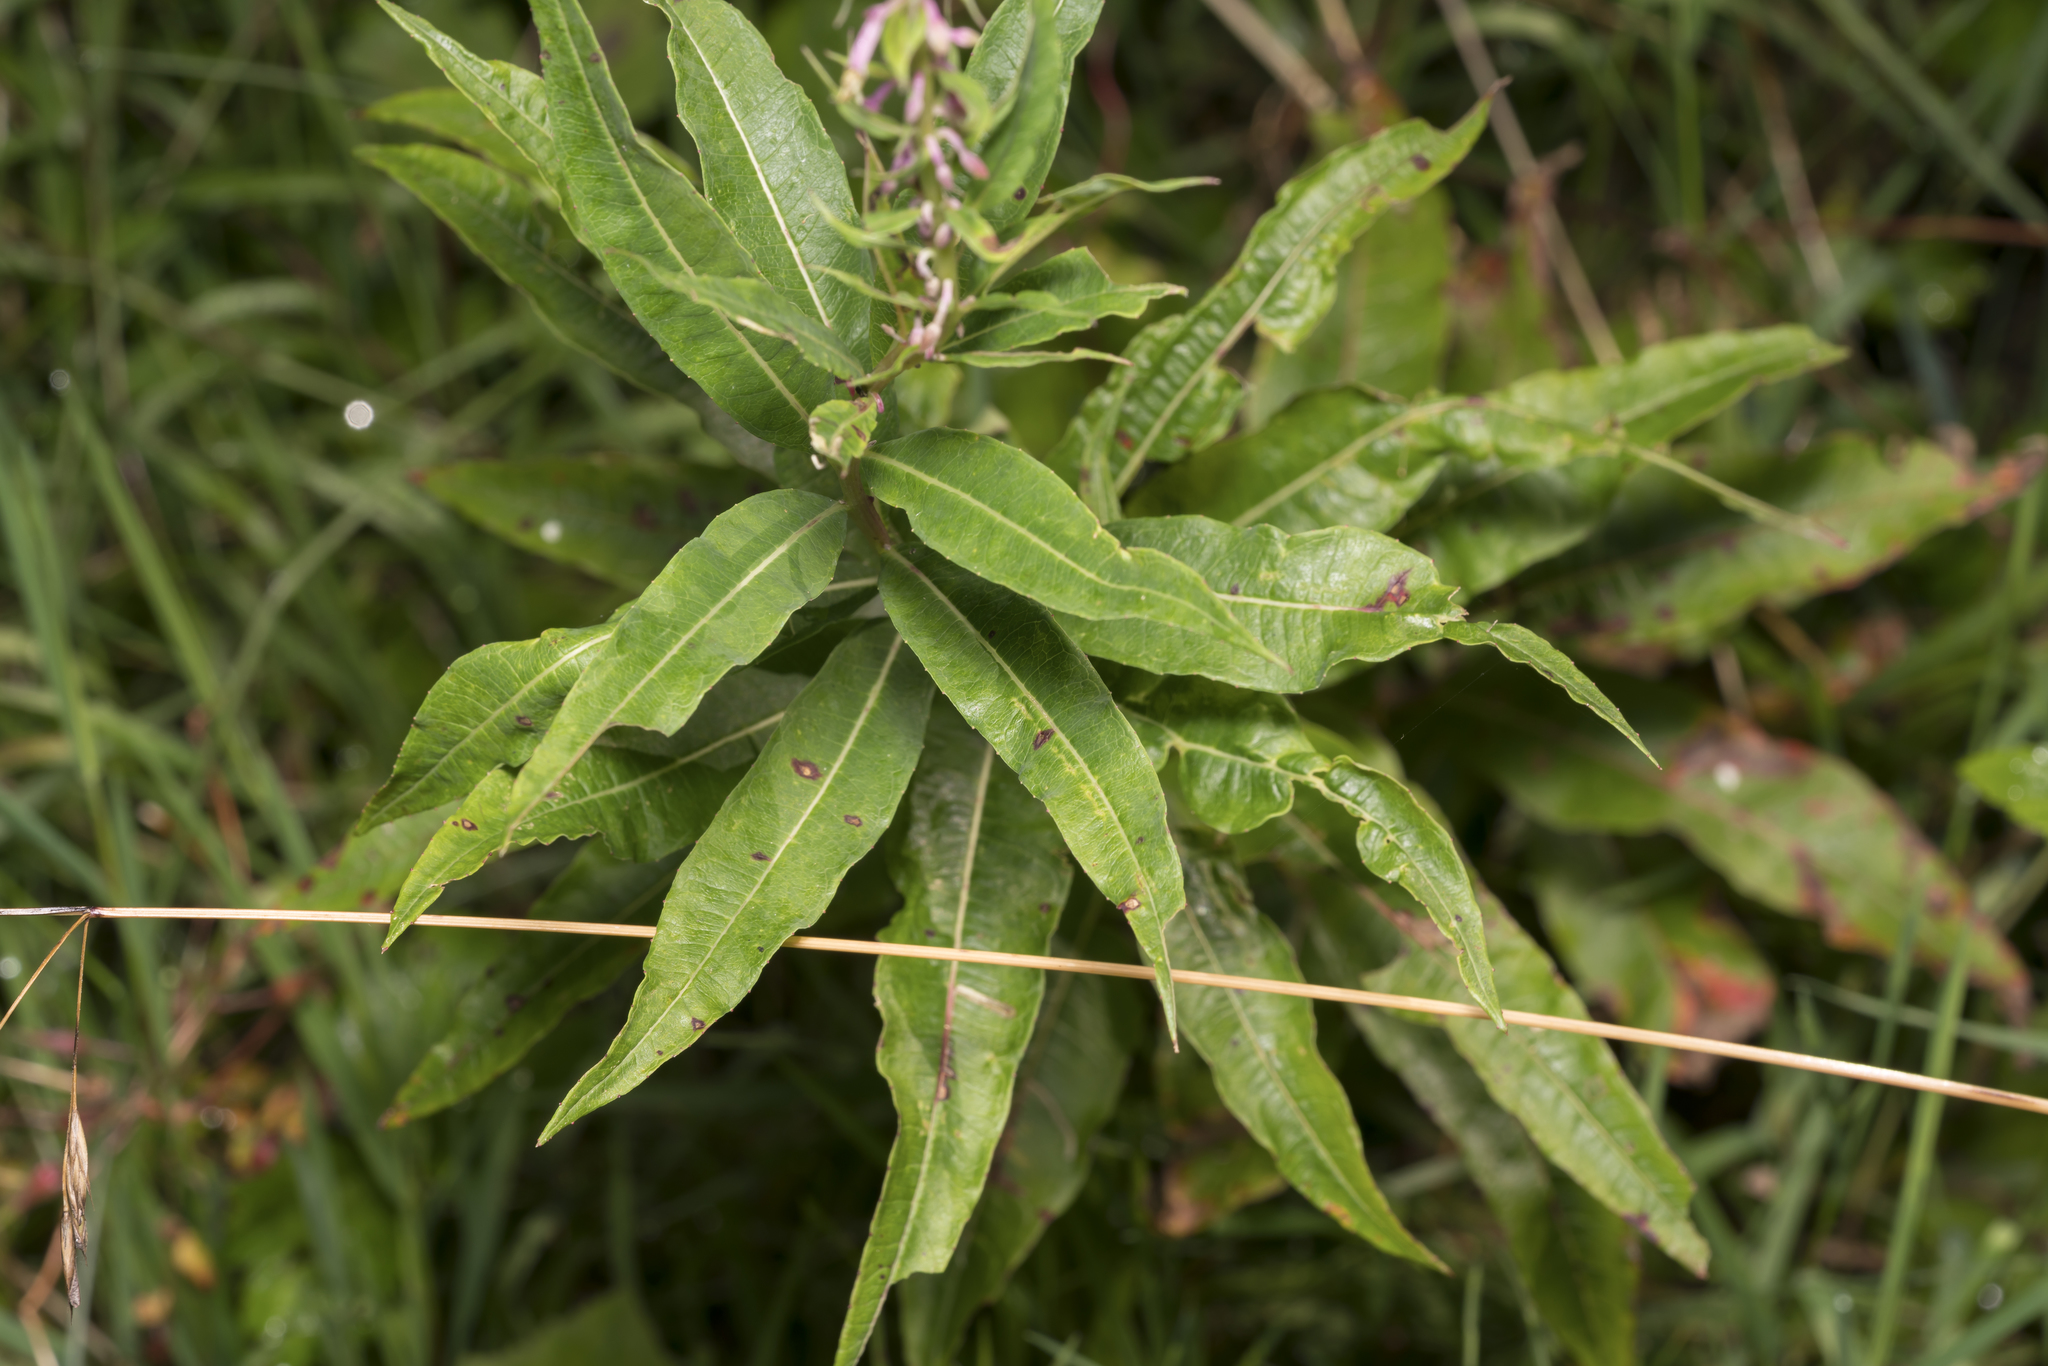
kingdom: Plantae
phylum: Tracheophyta
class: Magnoliopsida
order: Myrtales
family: Onagraceae
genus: Chamaenerion
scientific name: Chamaenerion angustifolium
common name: Fireweed
